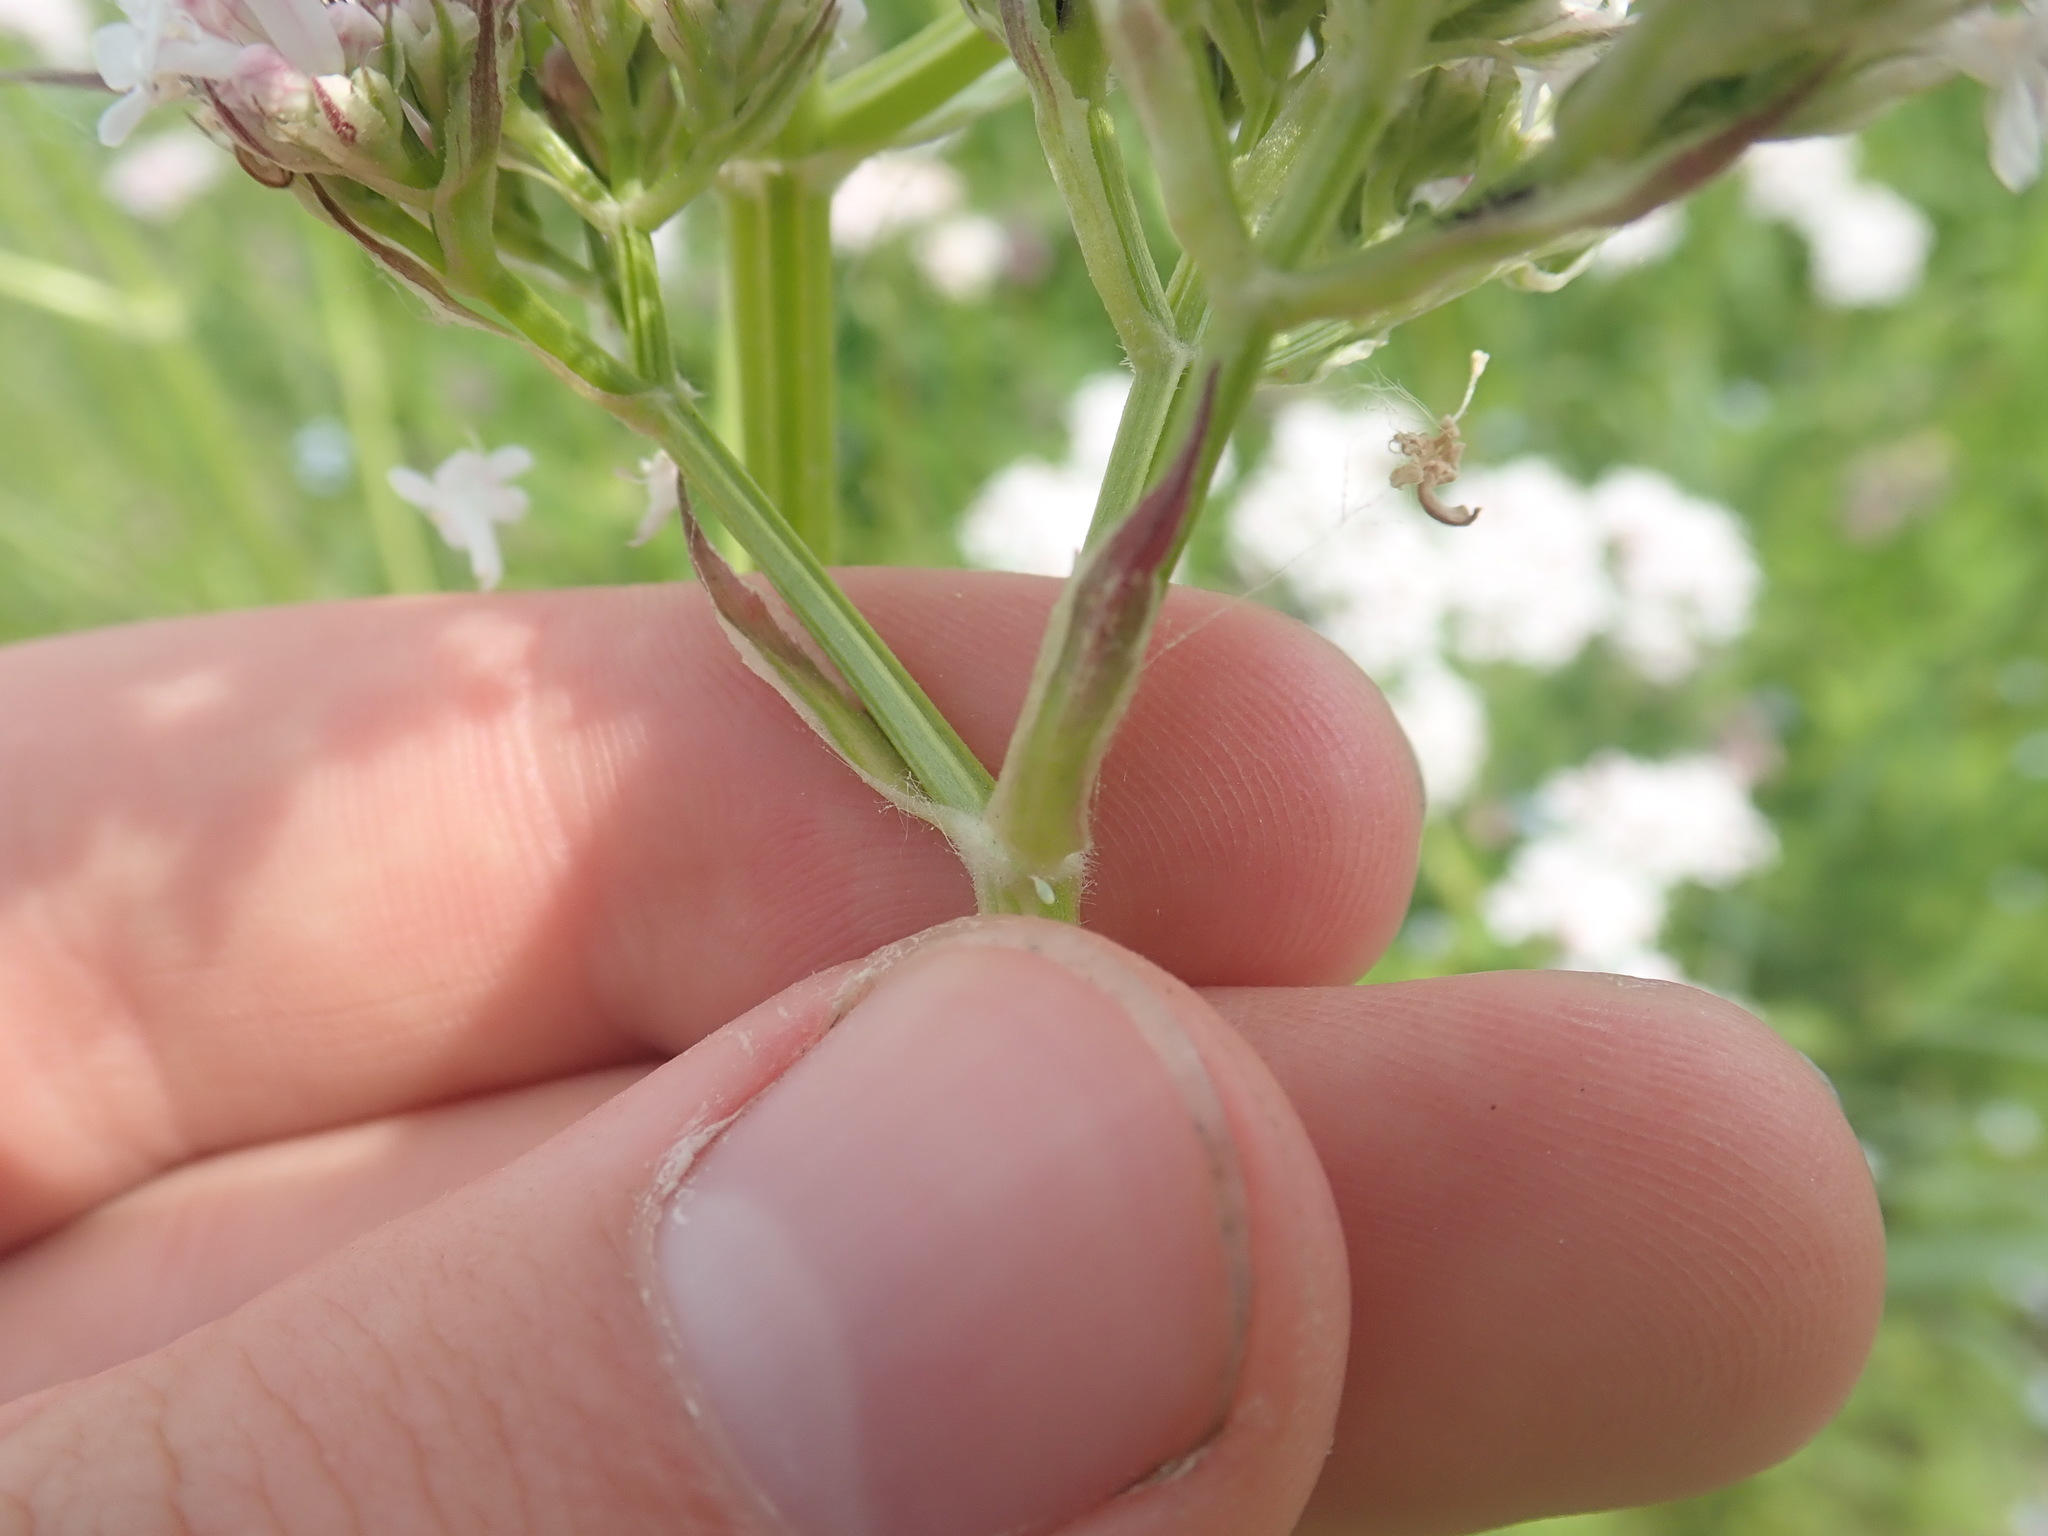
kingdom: Plantae
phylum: Tracheophyta
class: Magnoliopsida
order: Dipsacales
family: Caprifoliaceae
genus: Valeriana
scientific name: Valeriana officinalis
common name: Common valerian
